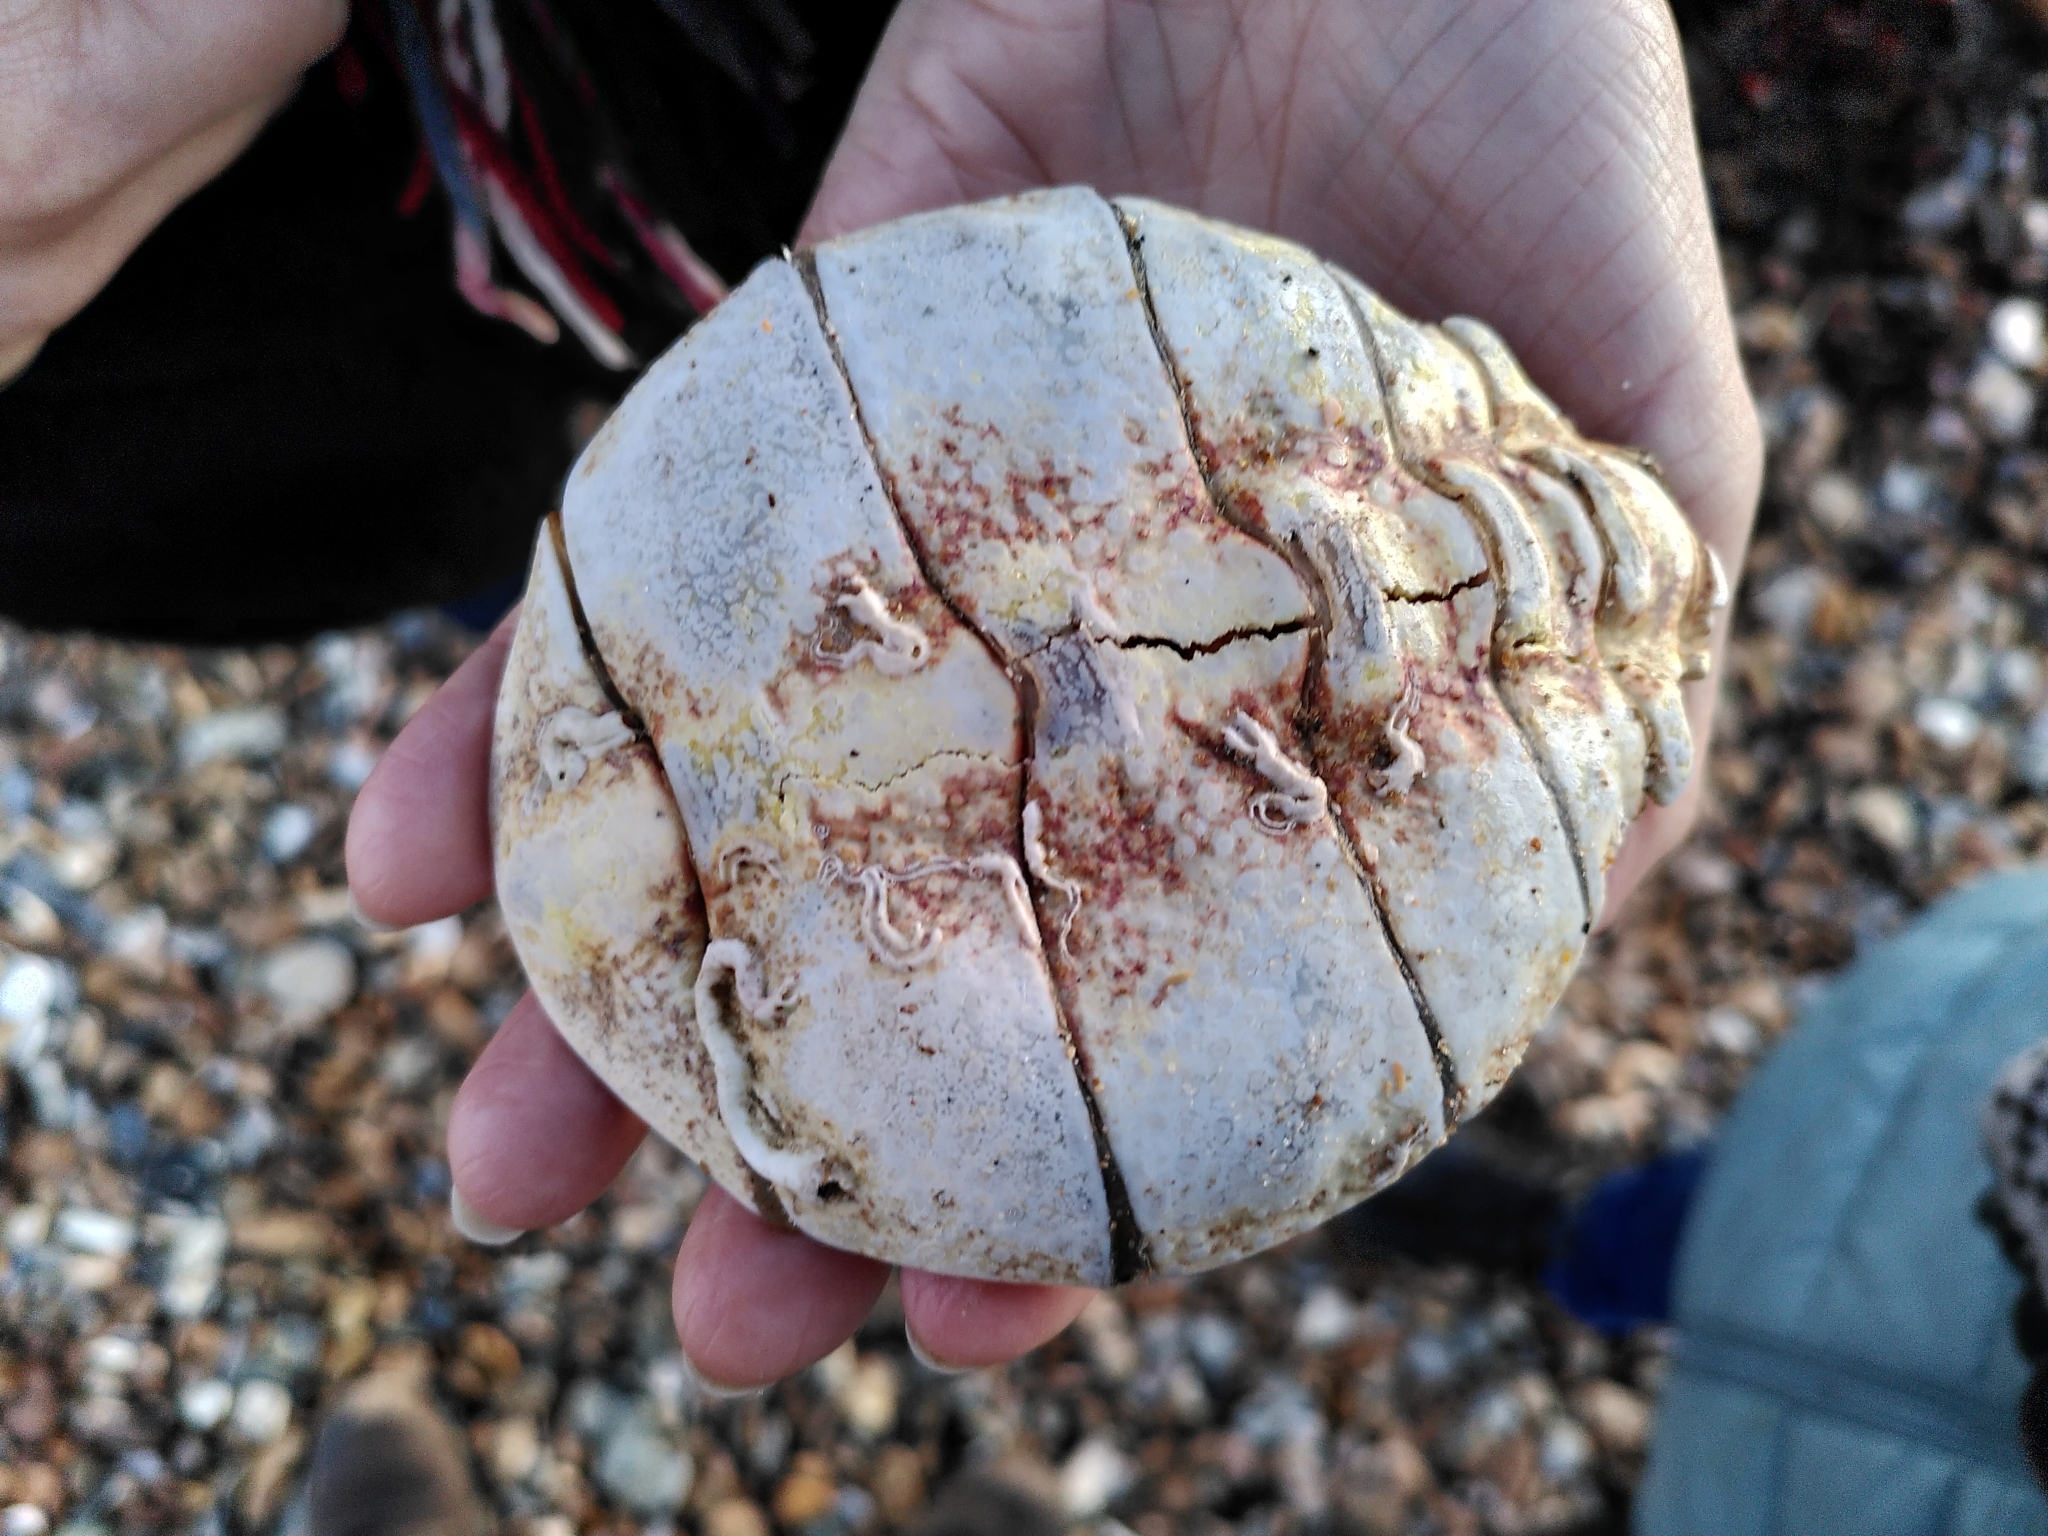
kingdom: Animalia
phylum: Arthropoda
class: Malacostraca
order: Decapoda
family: Majidae
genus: Maja
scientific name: Maja brachydactyla
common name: Common spider crab
